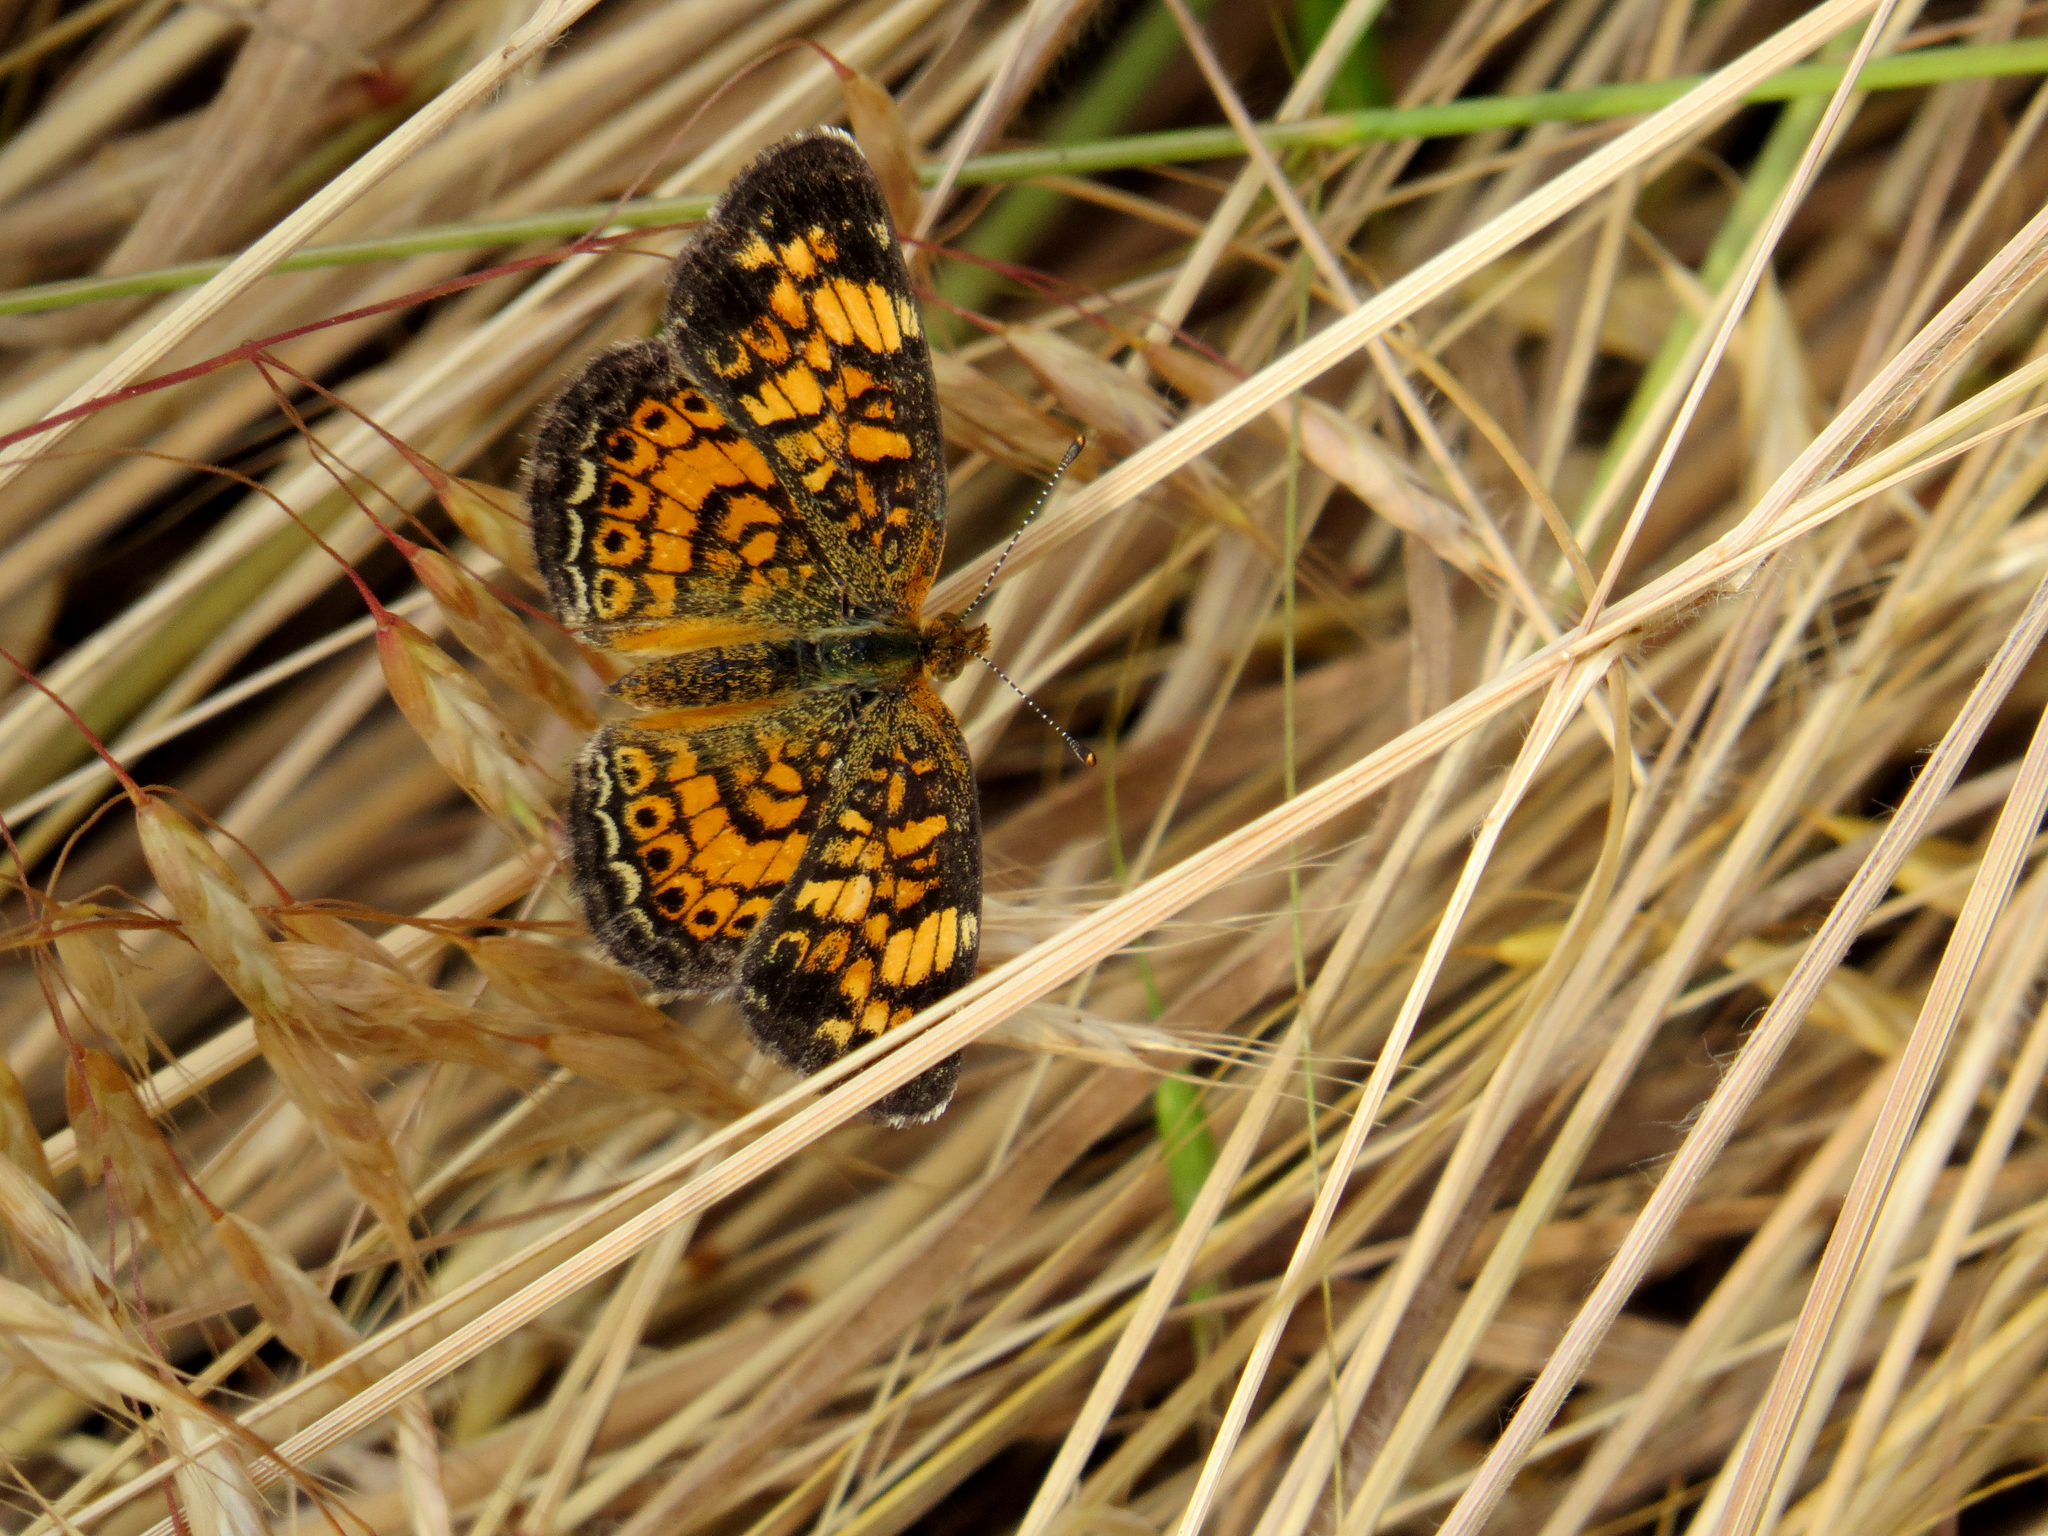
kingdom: Animalia
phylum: Arthropoda
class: Insecta
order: Lepidoptera
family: Nymphalidae
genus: Phyciodes
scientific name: Phyciodes tharos
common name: Pearl crescent
